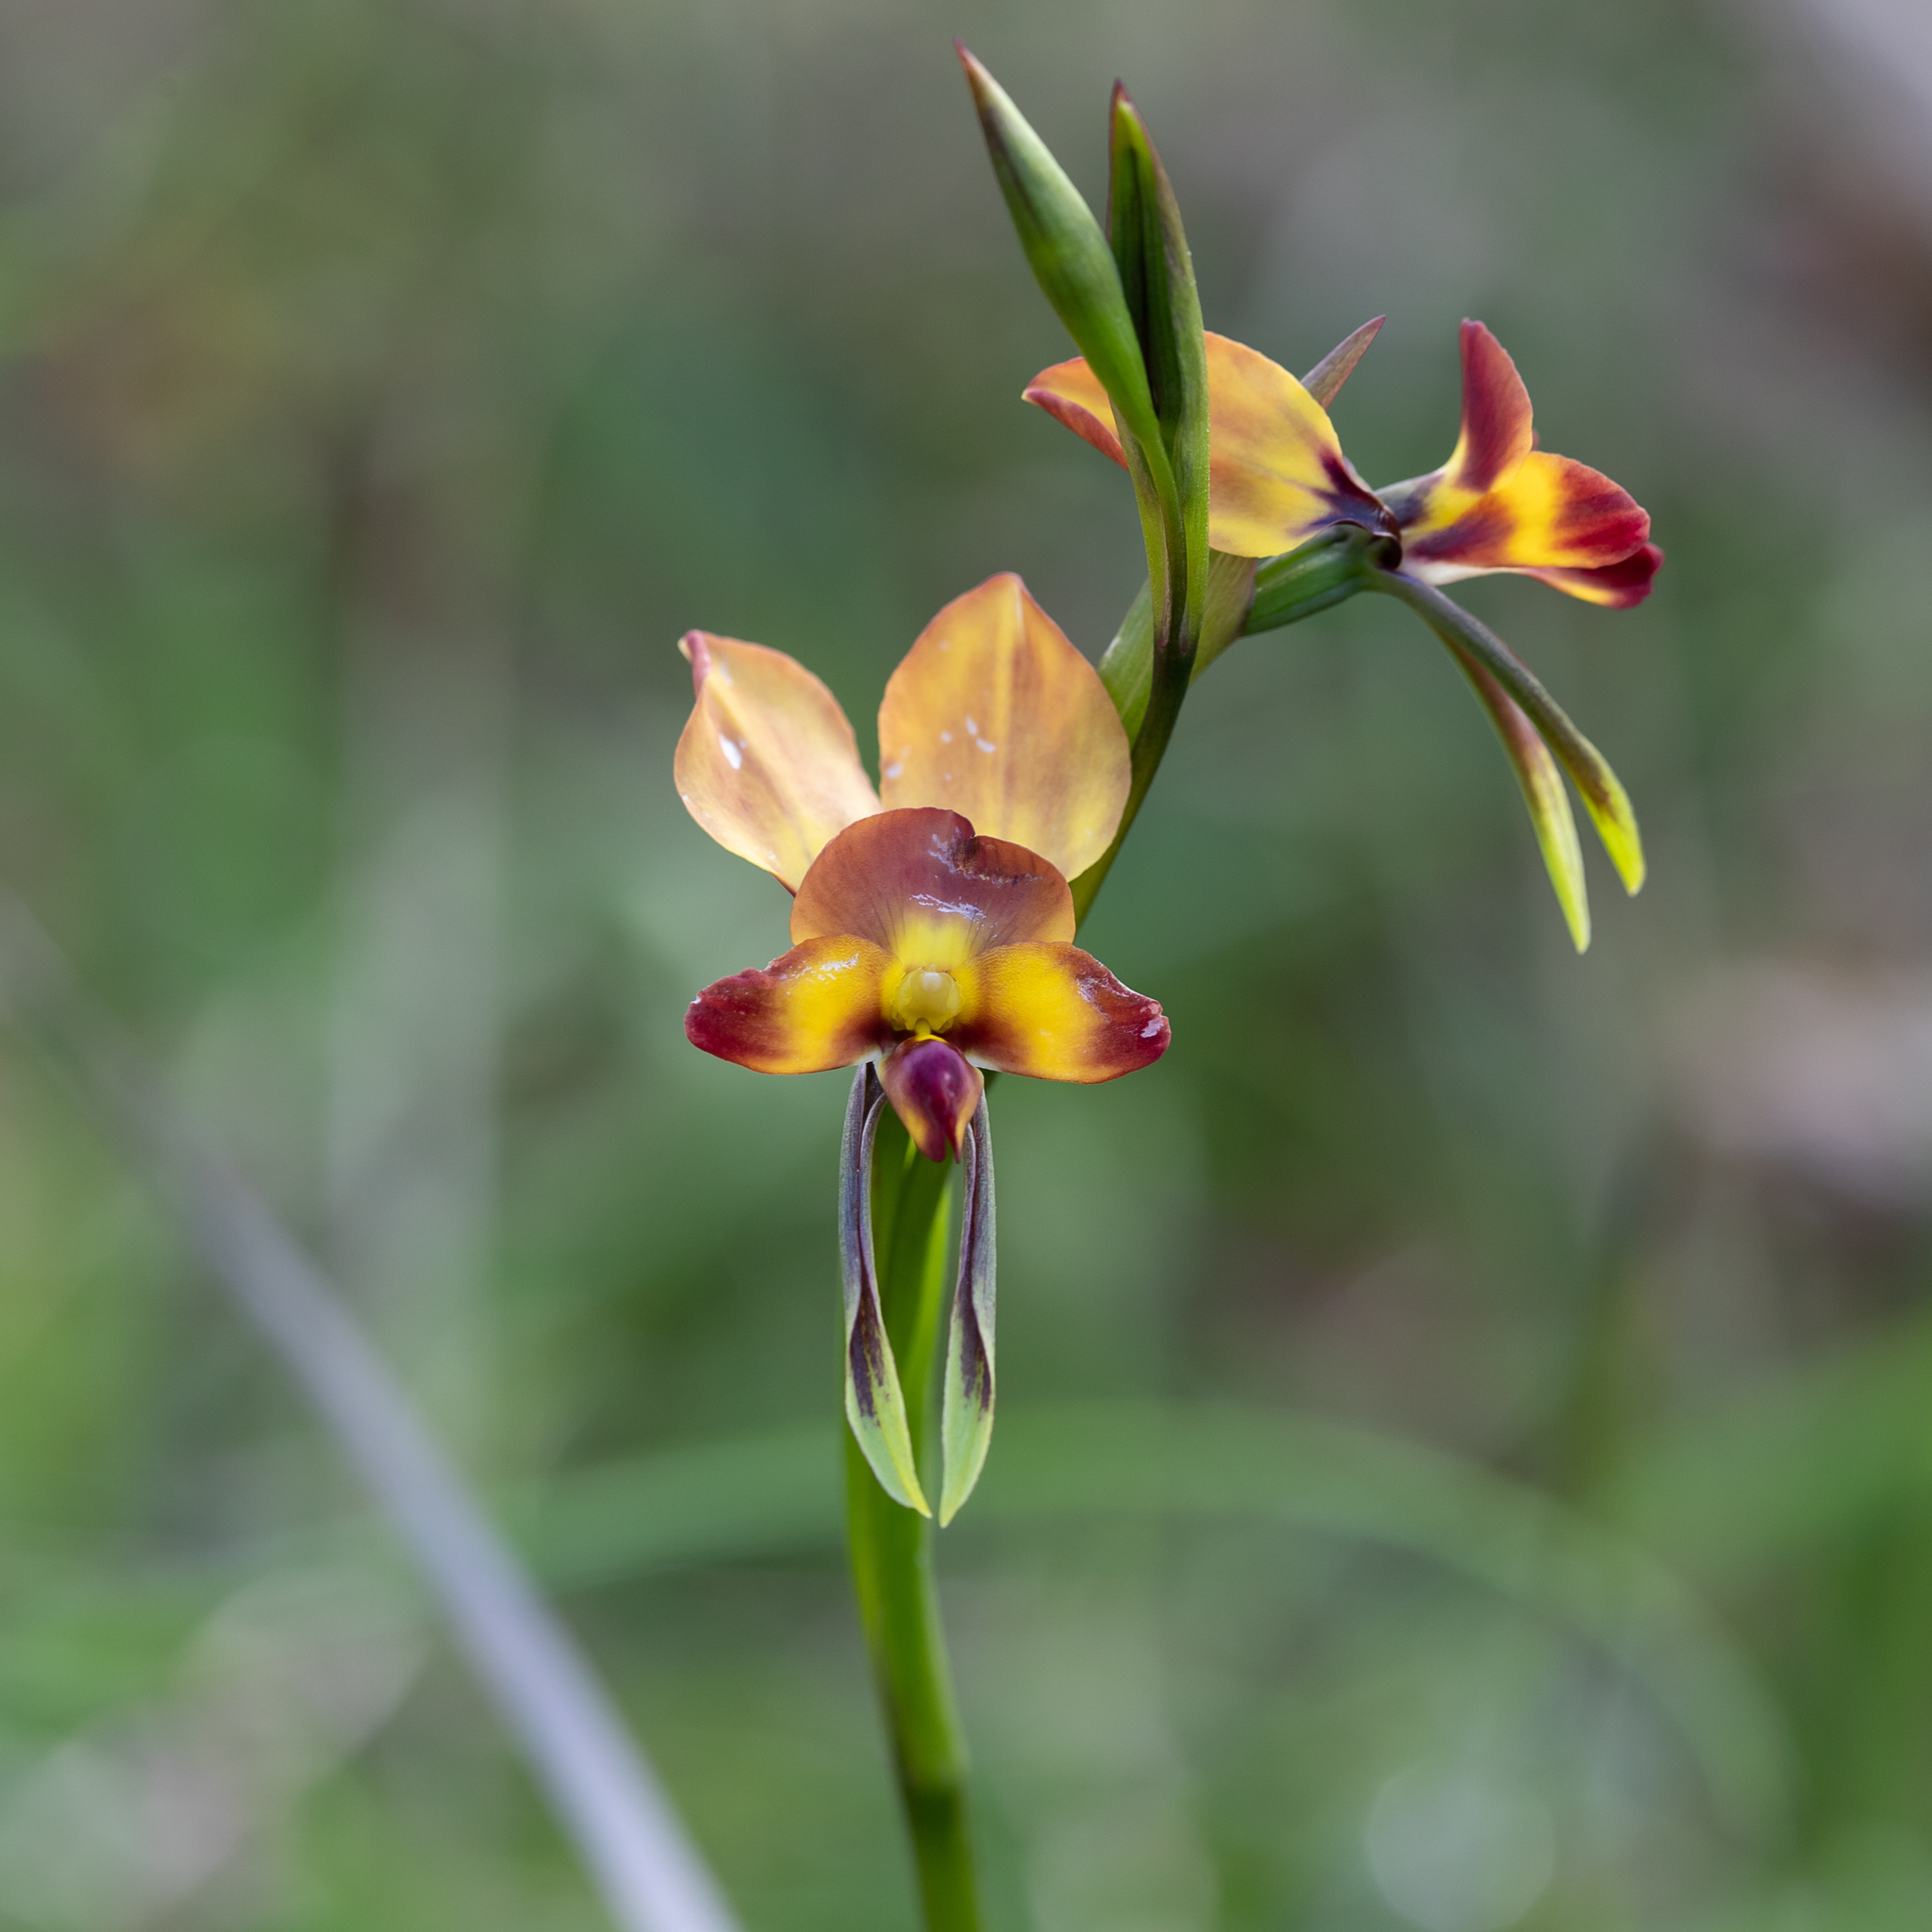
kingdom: Plantae
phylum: Tracheophyta
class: Liliopsida
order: Asparagales
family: Orchidaceae
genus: Diuris
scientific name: Diuris orientis
